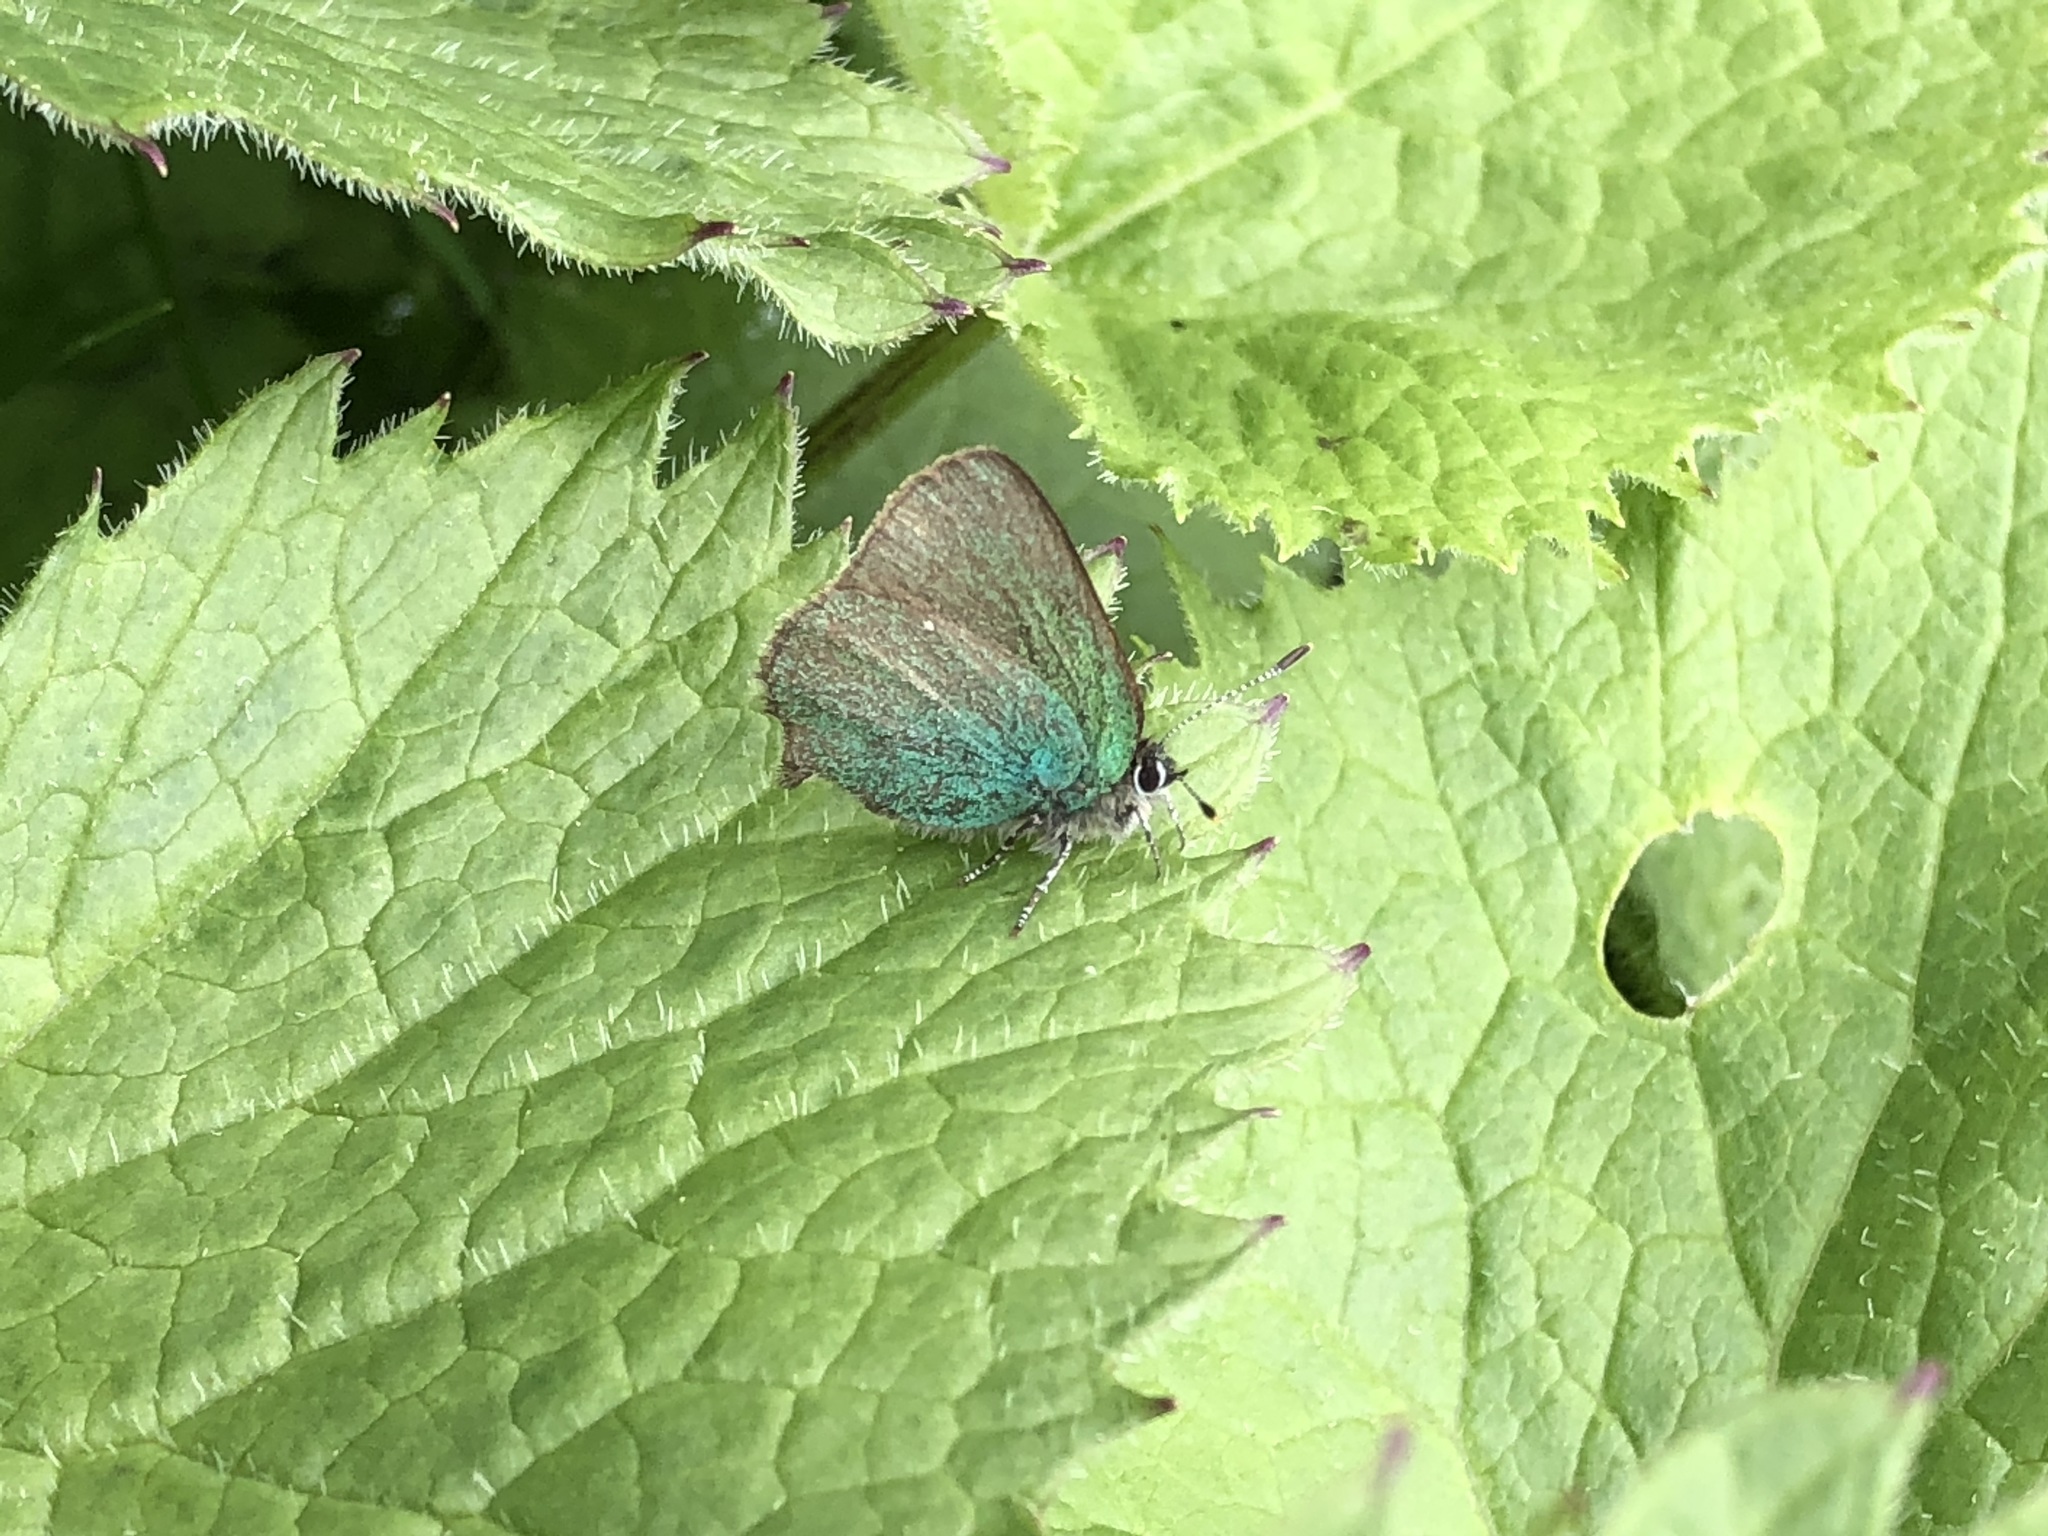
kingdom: Animalia
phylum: Arthropoda
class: Insecta
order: Lepidoptera
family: Lycaenidae
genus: Callophrys
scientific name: Callophrys rubi
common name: Green hairstreak
